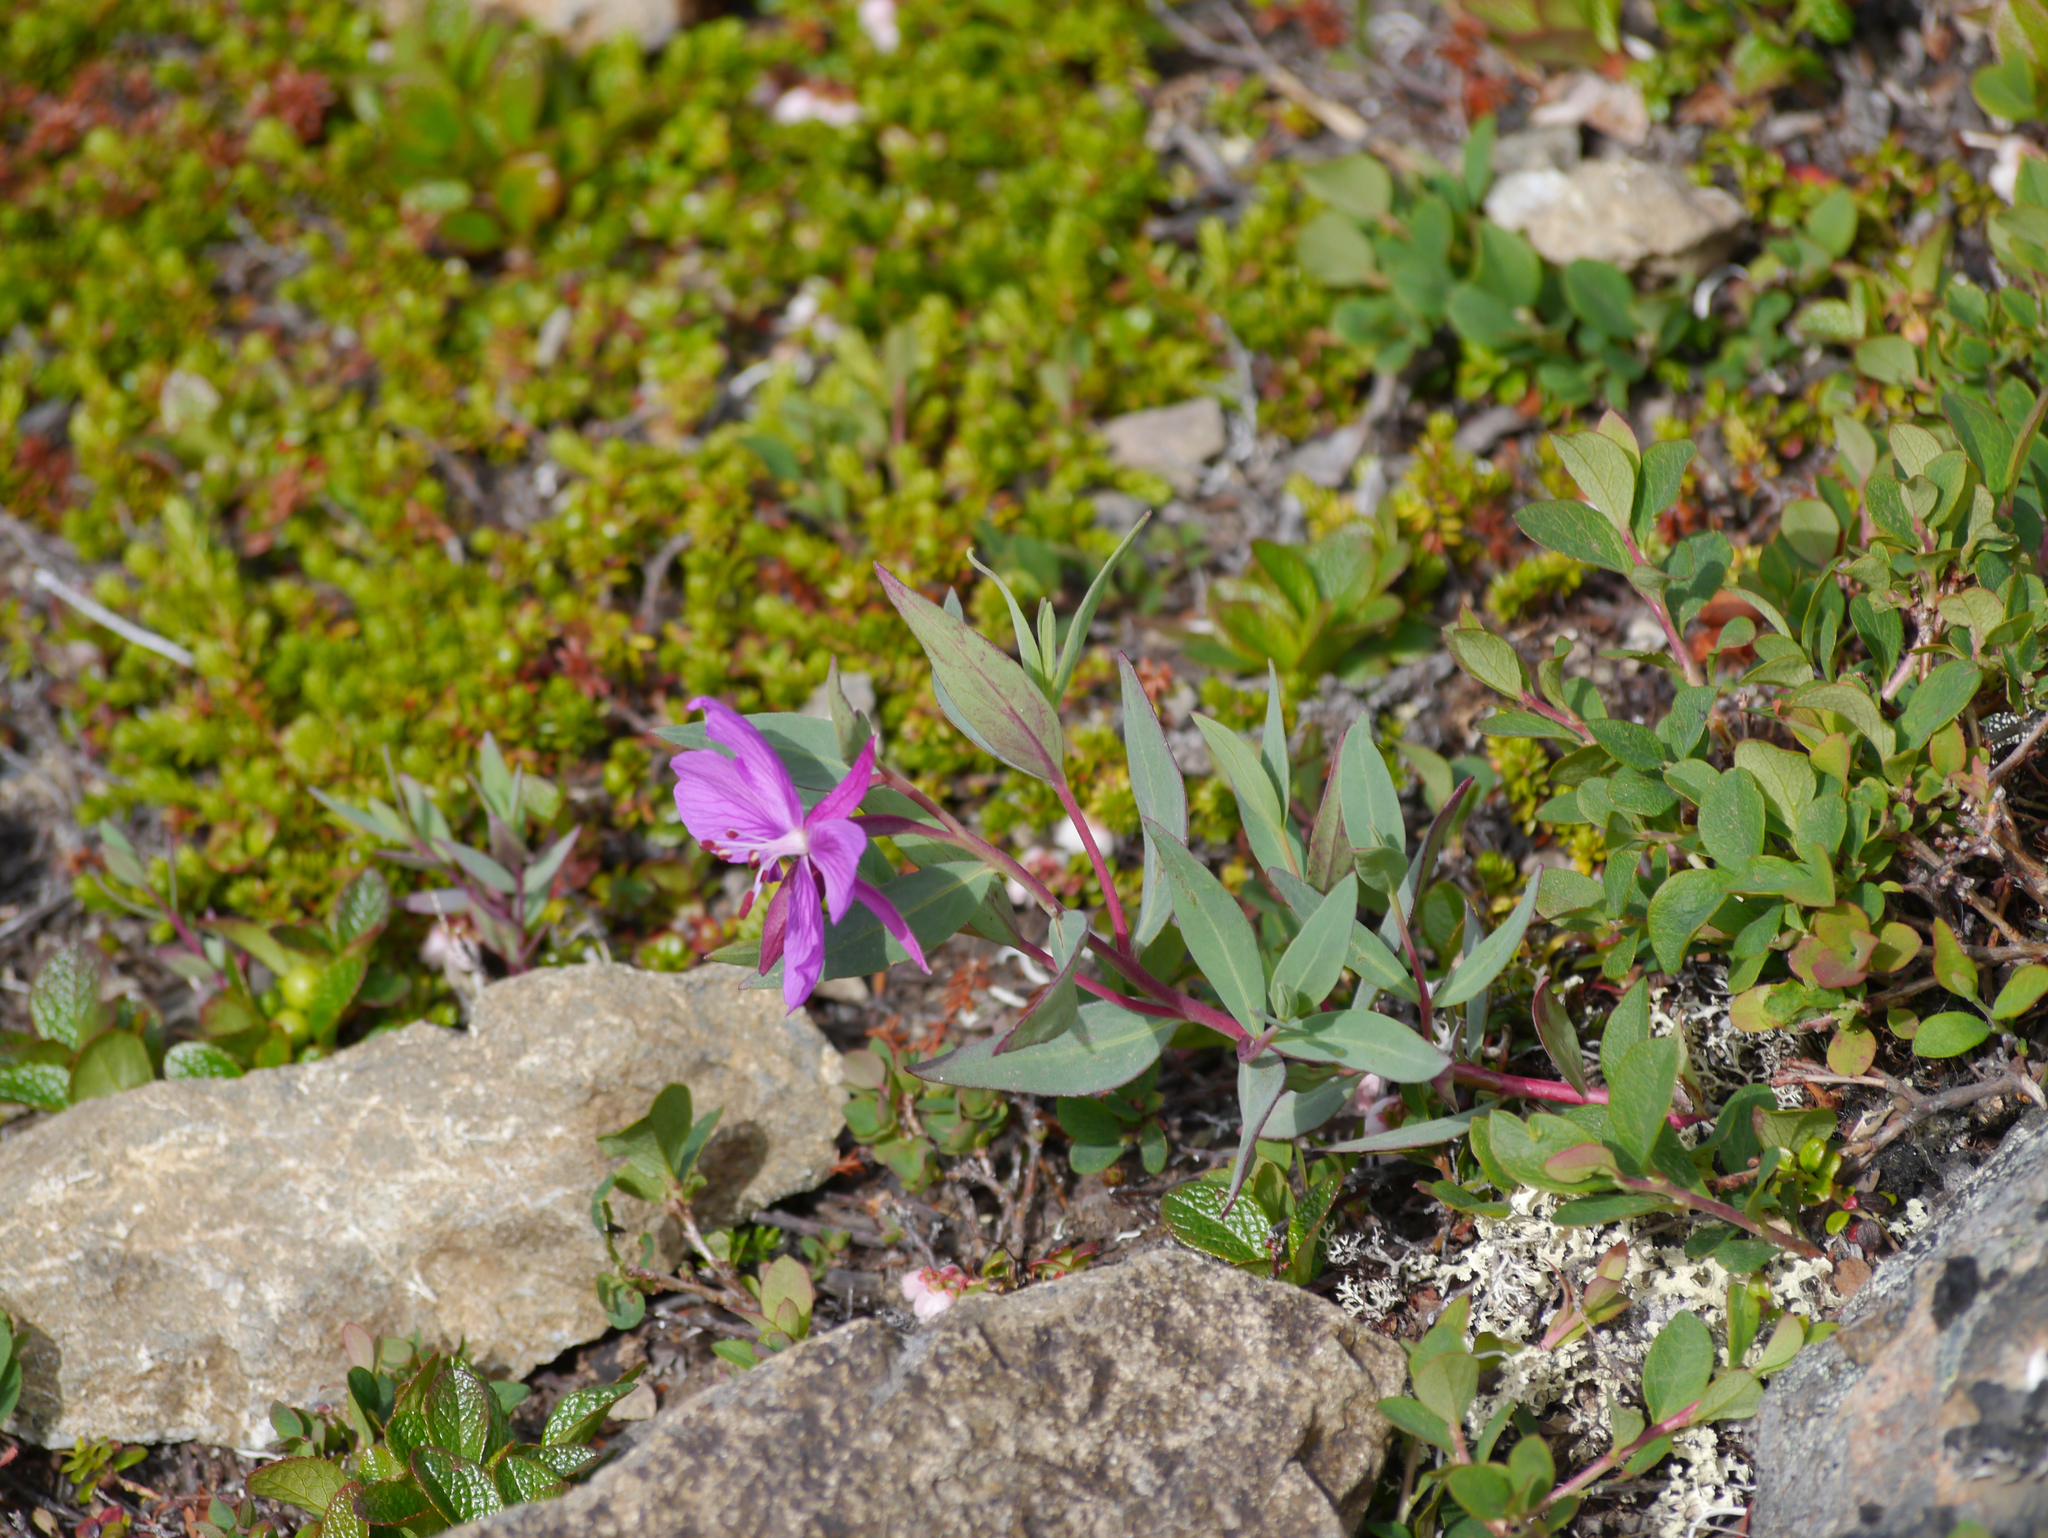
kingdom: Plantae
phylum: Tracheophyta
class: Magnoliopsida
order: Myrtales
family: Onagraceae
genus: Chamaenerion
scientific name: Chamaenerion latifolium
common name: Dwarf fireweed
